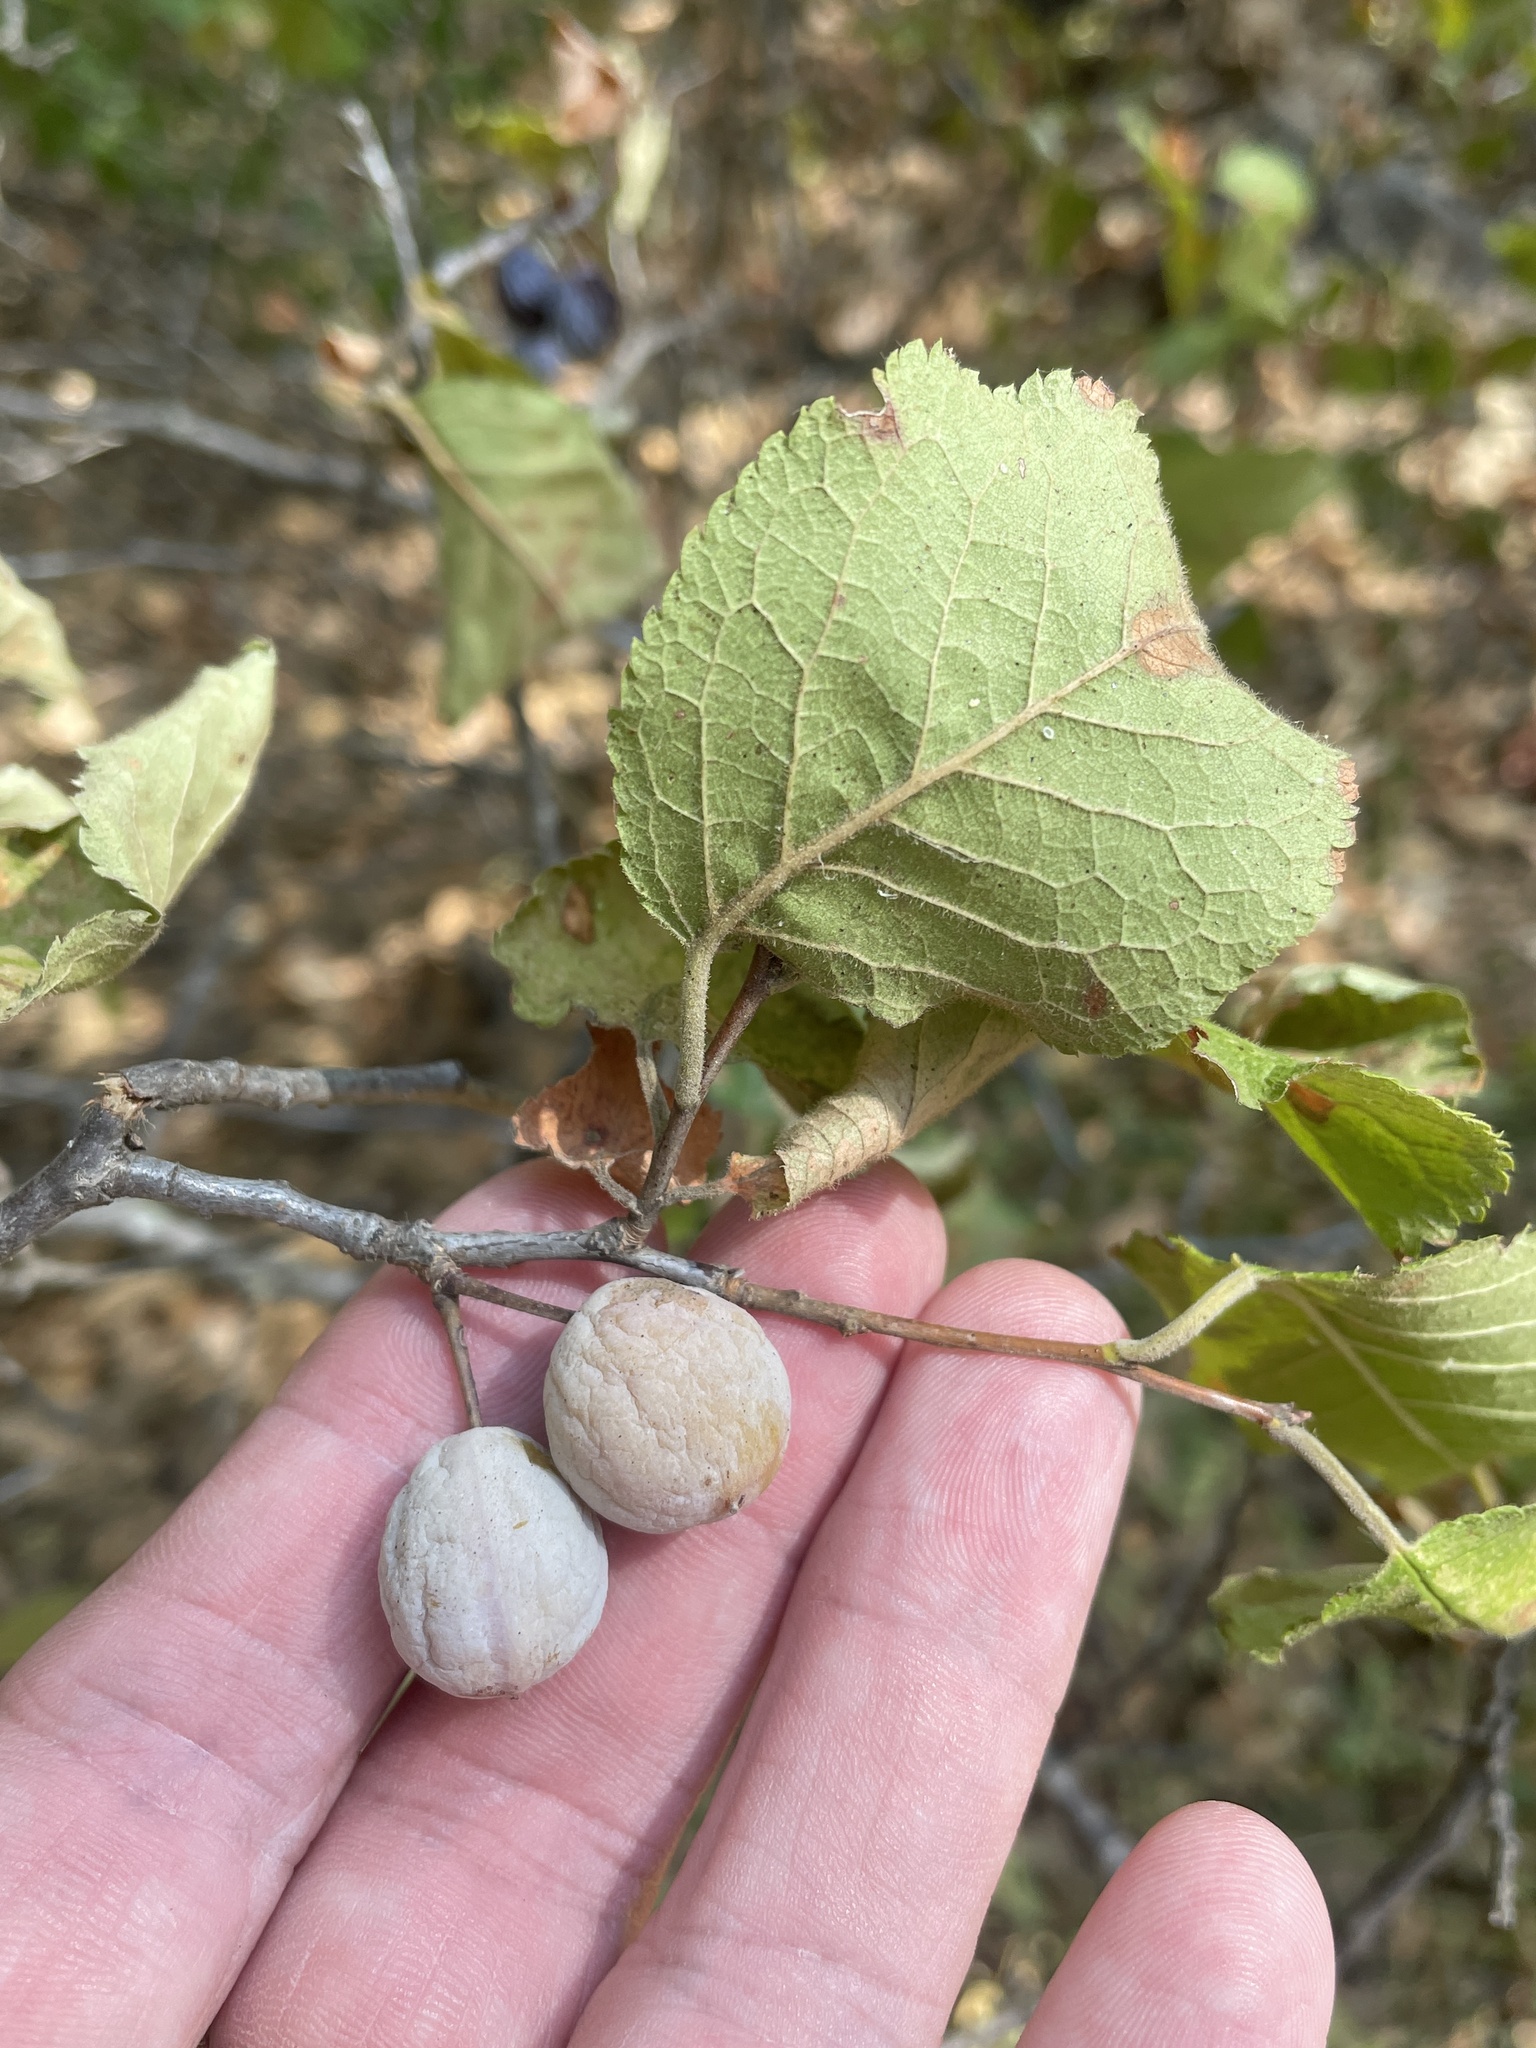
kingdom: Plantae
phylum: Tracheophyta
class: Magnoliopsida
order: Rosales
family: Rosaceae
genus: Prunus
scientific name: Prunus mexicana
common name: Mexican plum
